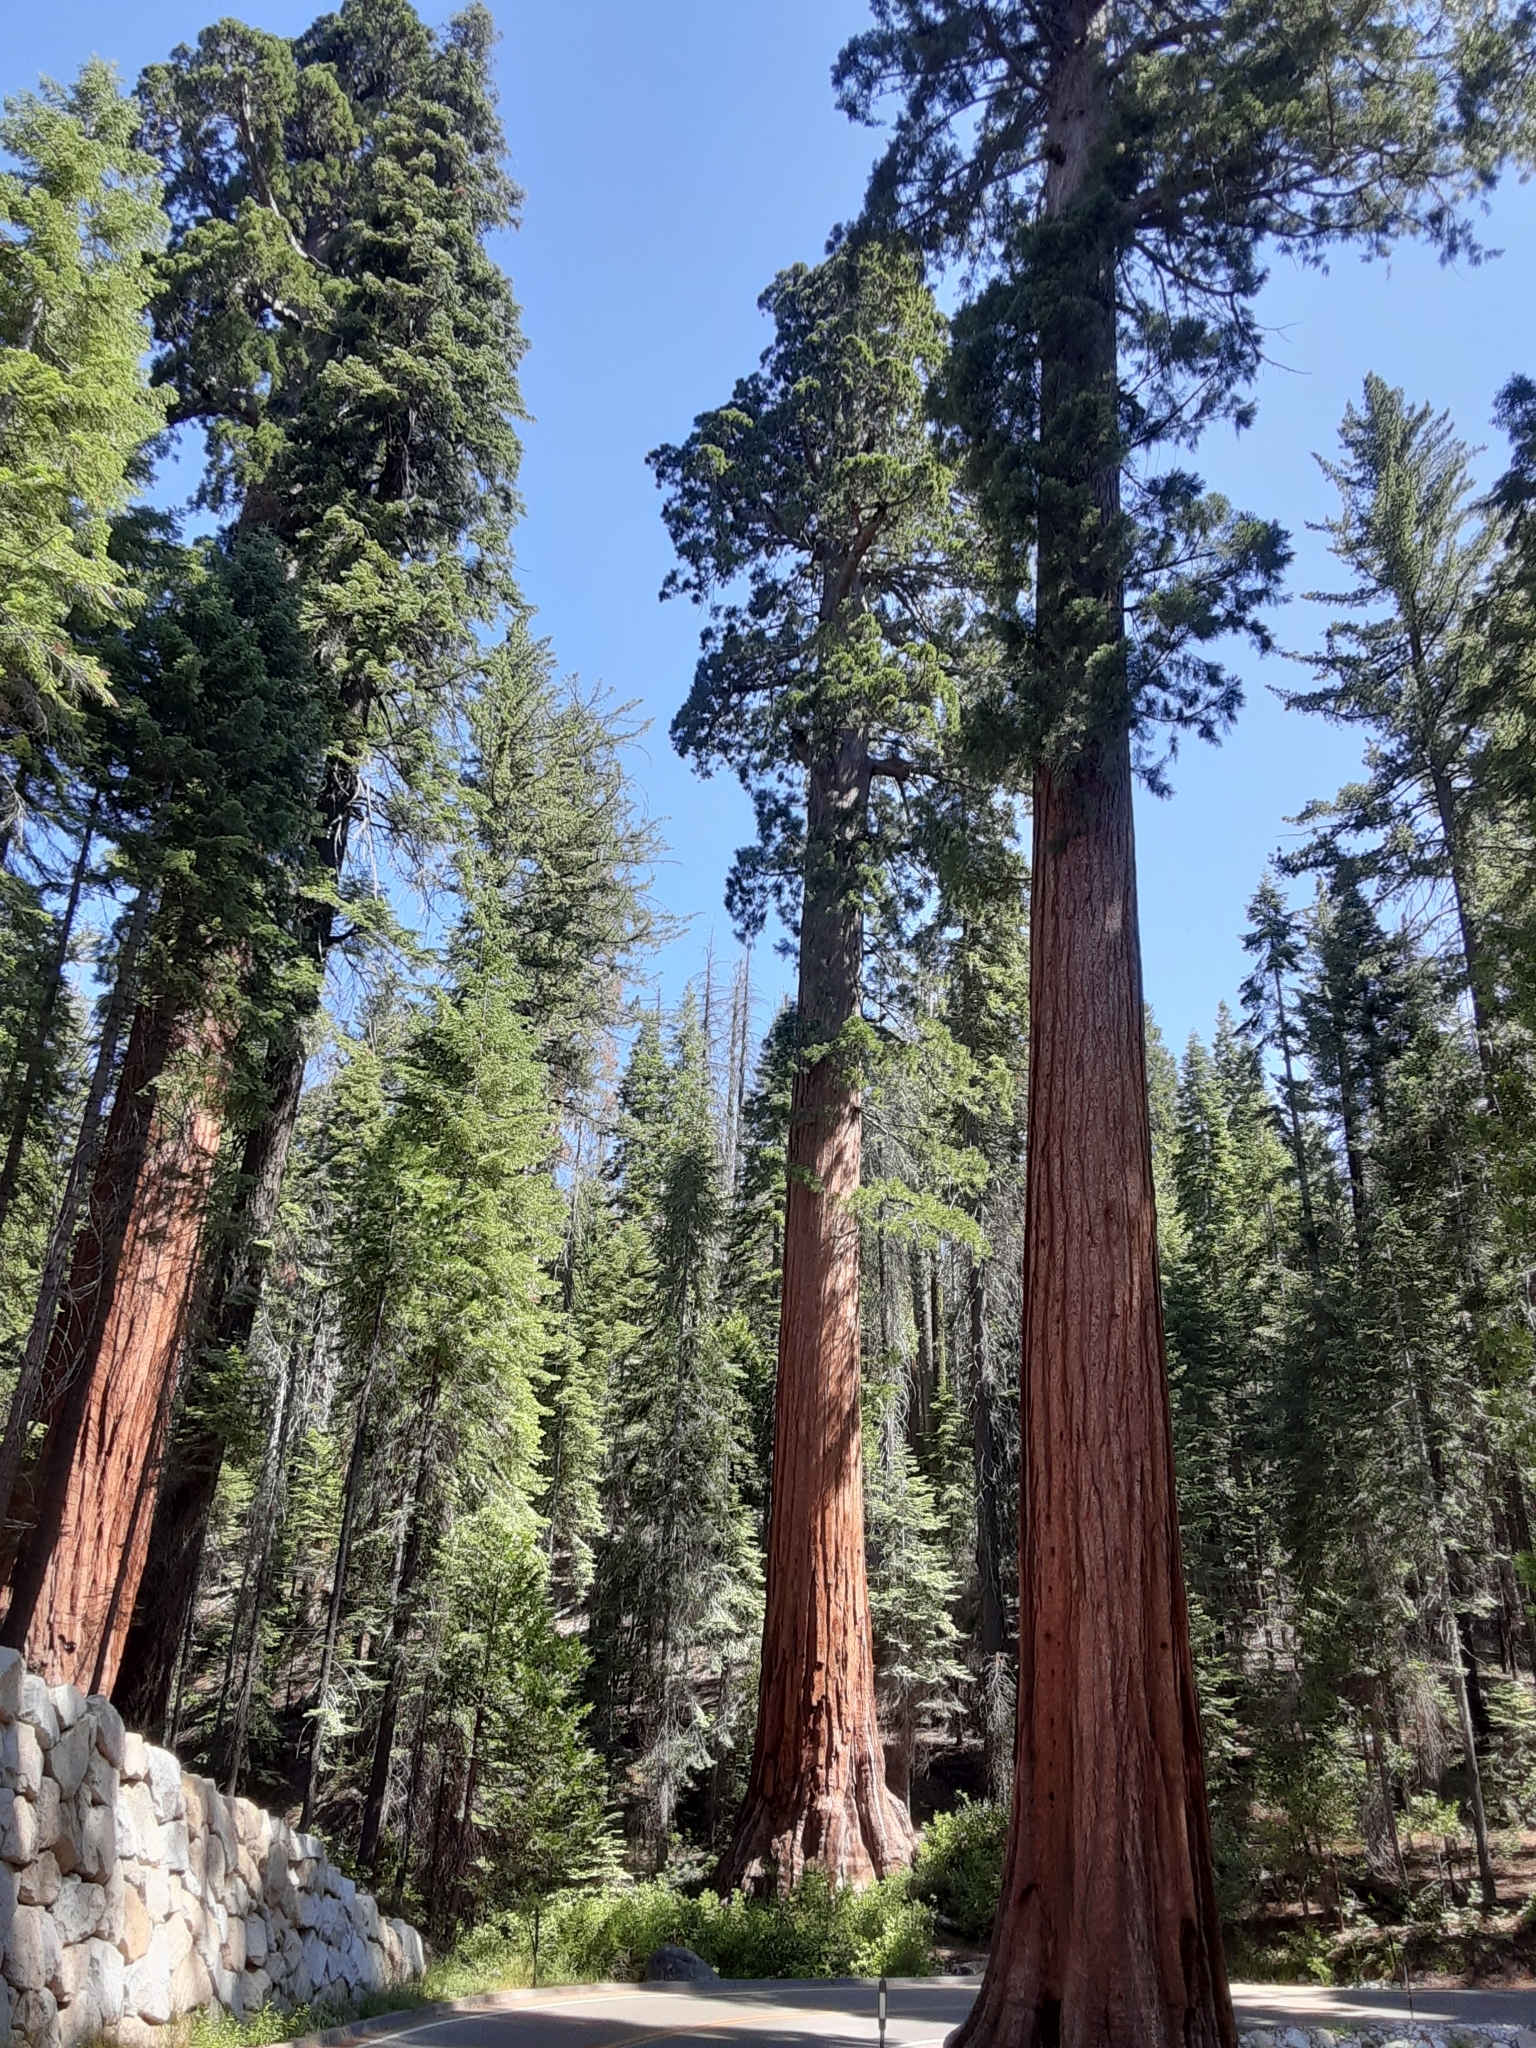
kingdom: Plantae
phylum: Tracheophyta
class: Pinopsida
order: Pinales
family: Cupressaceae
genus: Sequoiadendron
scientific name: Sequoiadendron giganteum
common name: Wellingtonia
